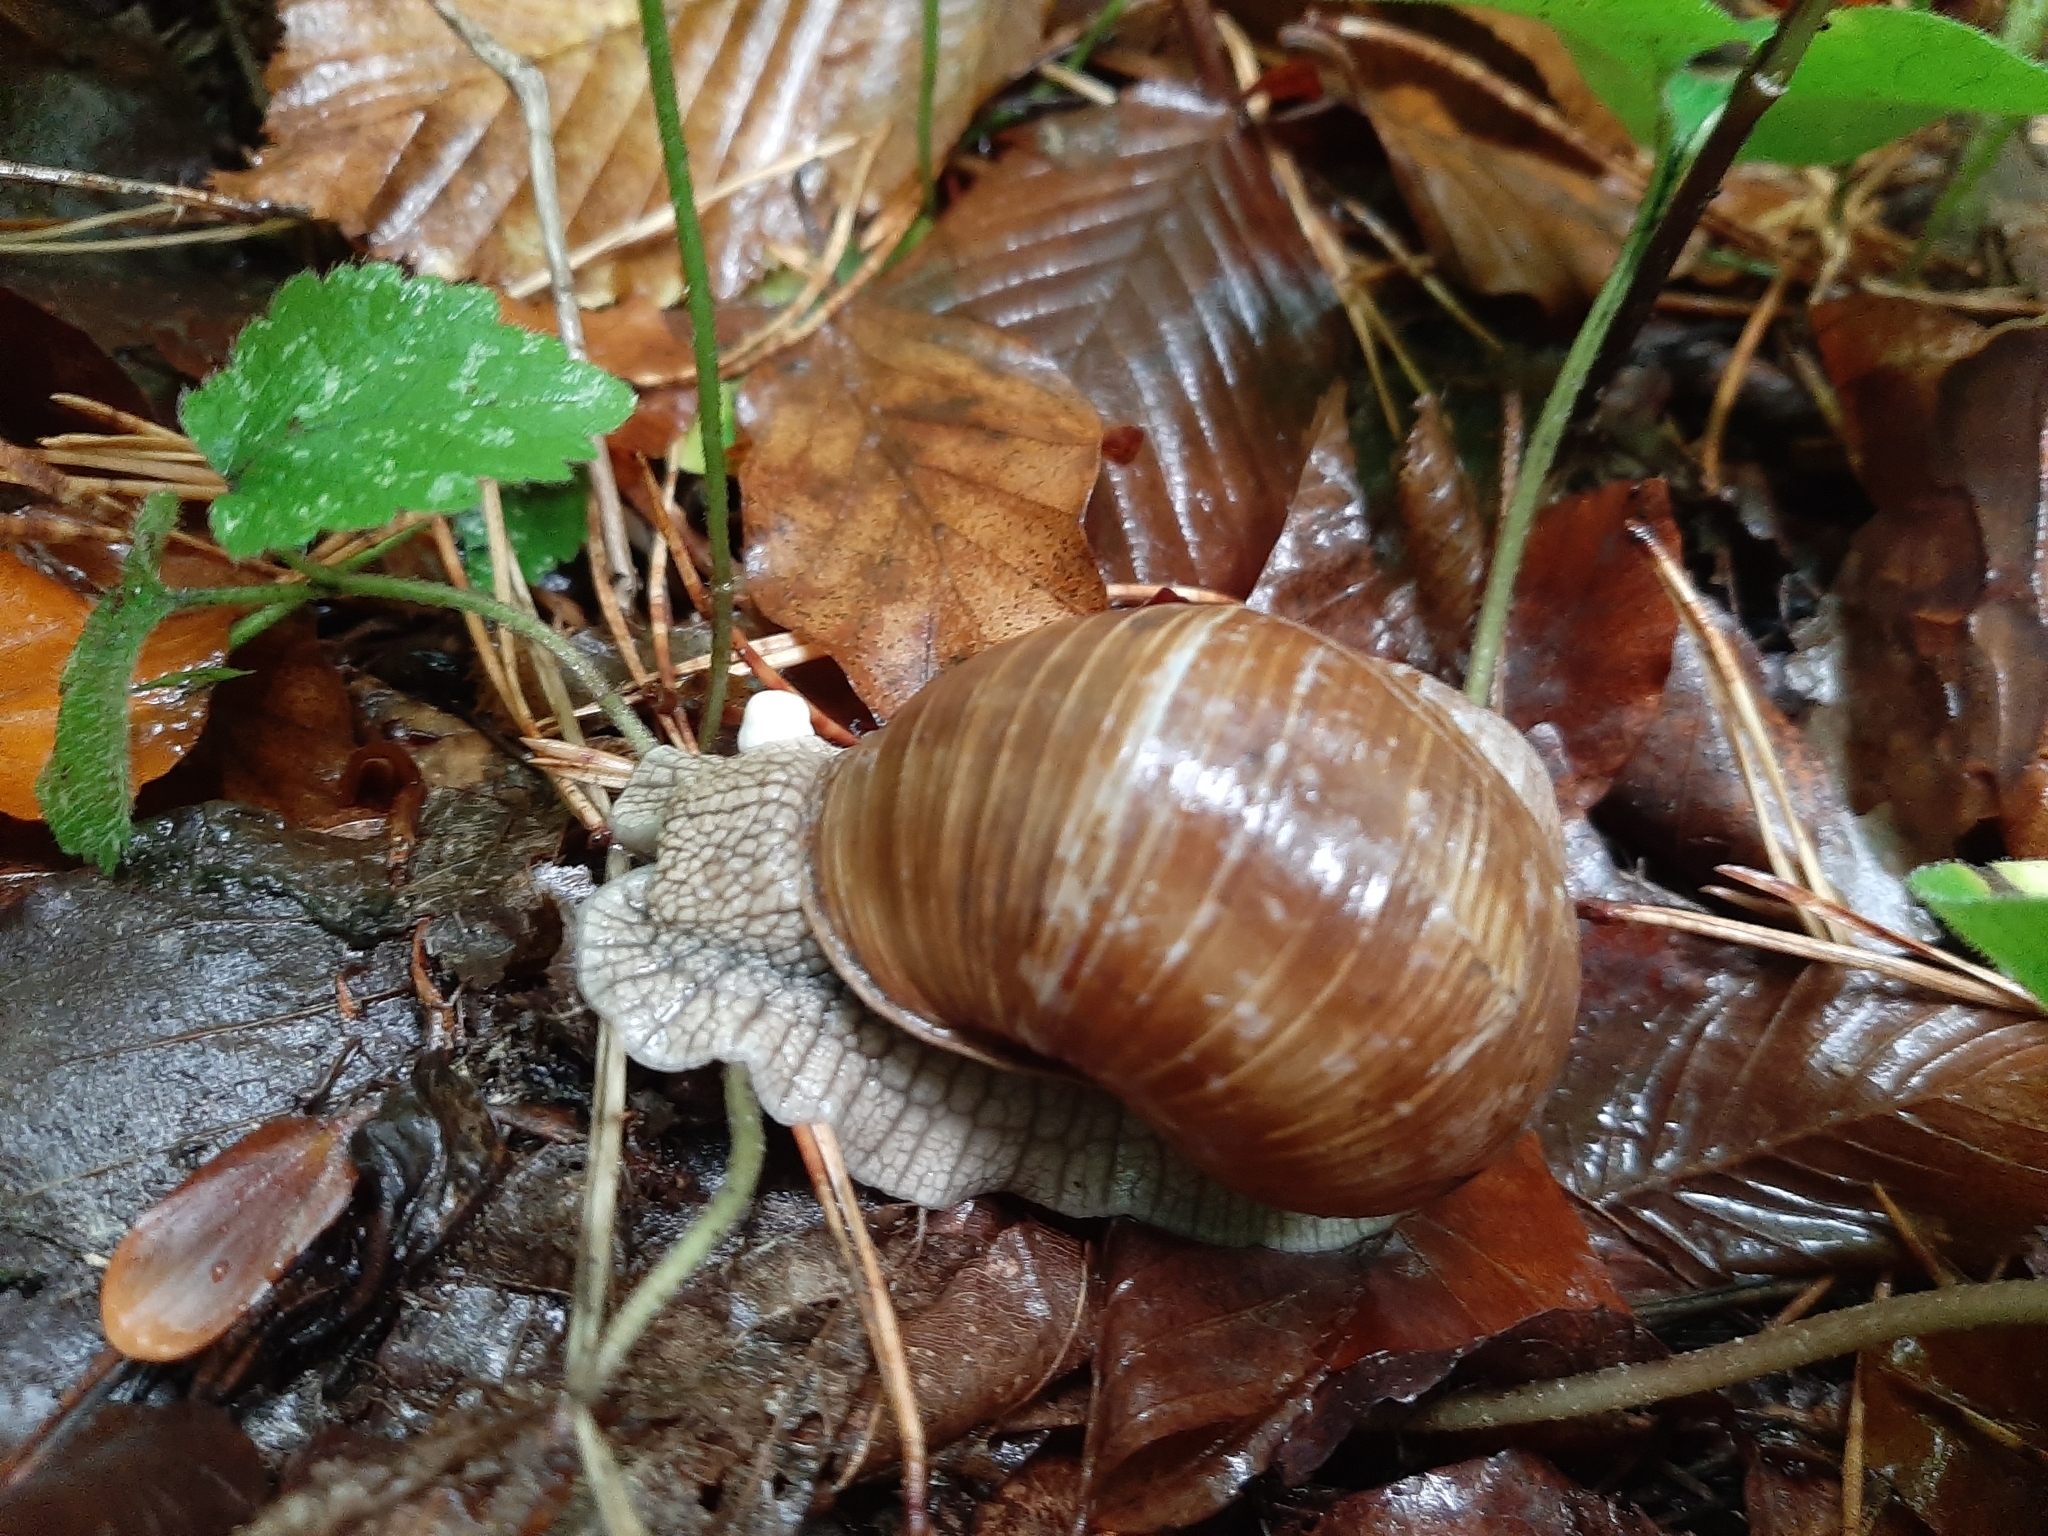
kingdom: Animalia
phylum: Mollusca
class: Gastropoda
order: Stylommatophora
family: Helicidae
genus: Helix
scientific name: Helix pomatia
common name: Roman snail
